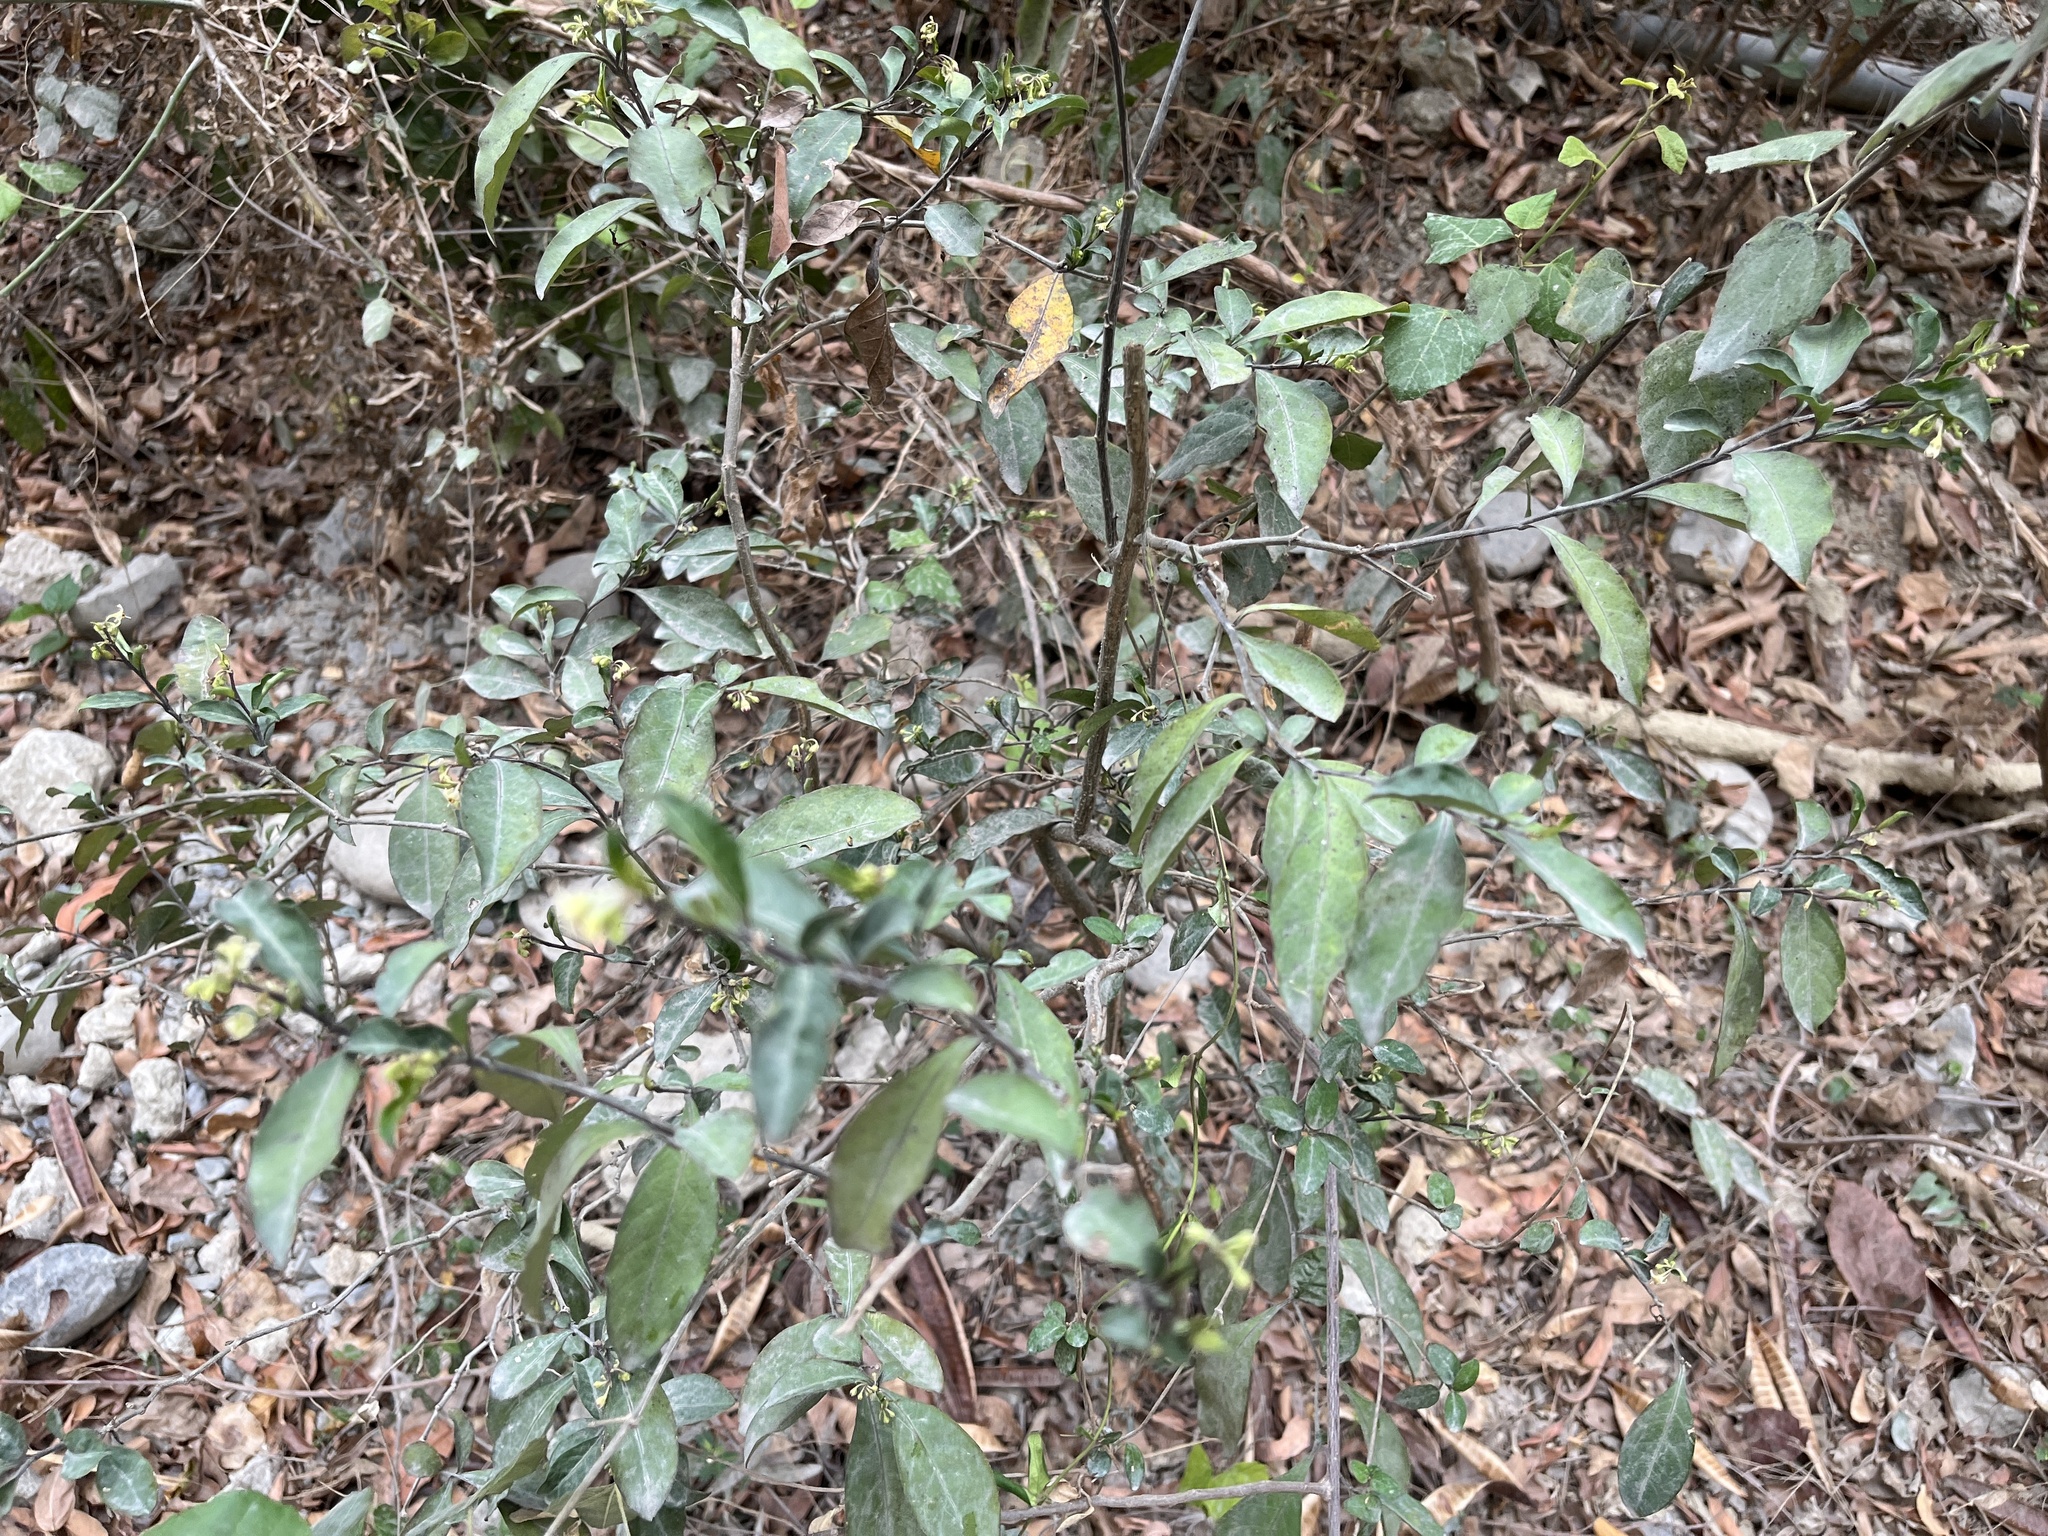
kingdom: Plantae
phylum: Tracheophyta
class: Magnoliopsida
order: Solanales
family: Solanaceae
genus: Solanum
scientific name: Solanum diphyllum
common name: Twoleaf nightshade
